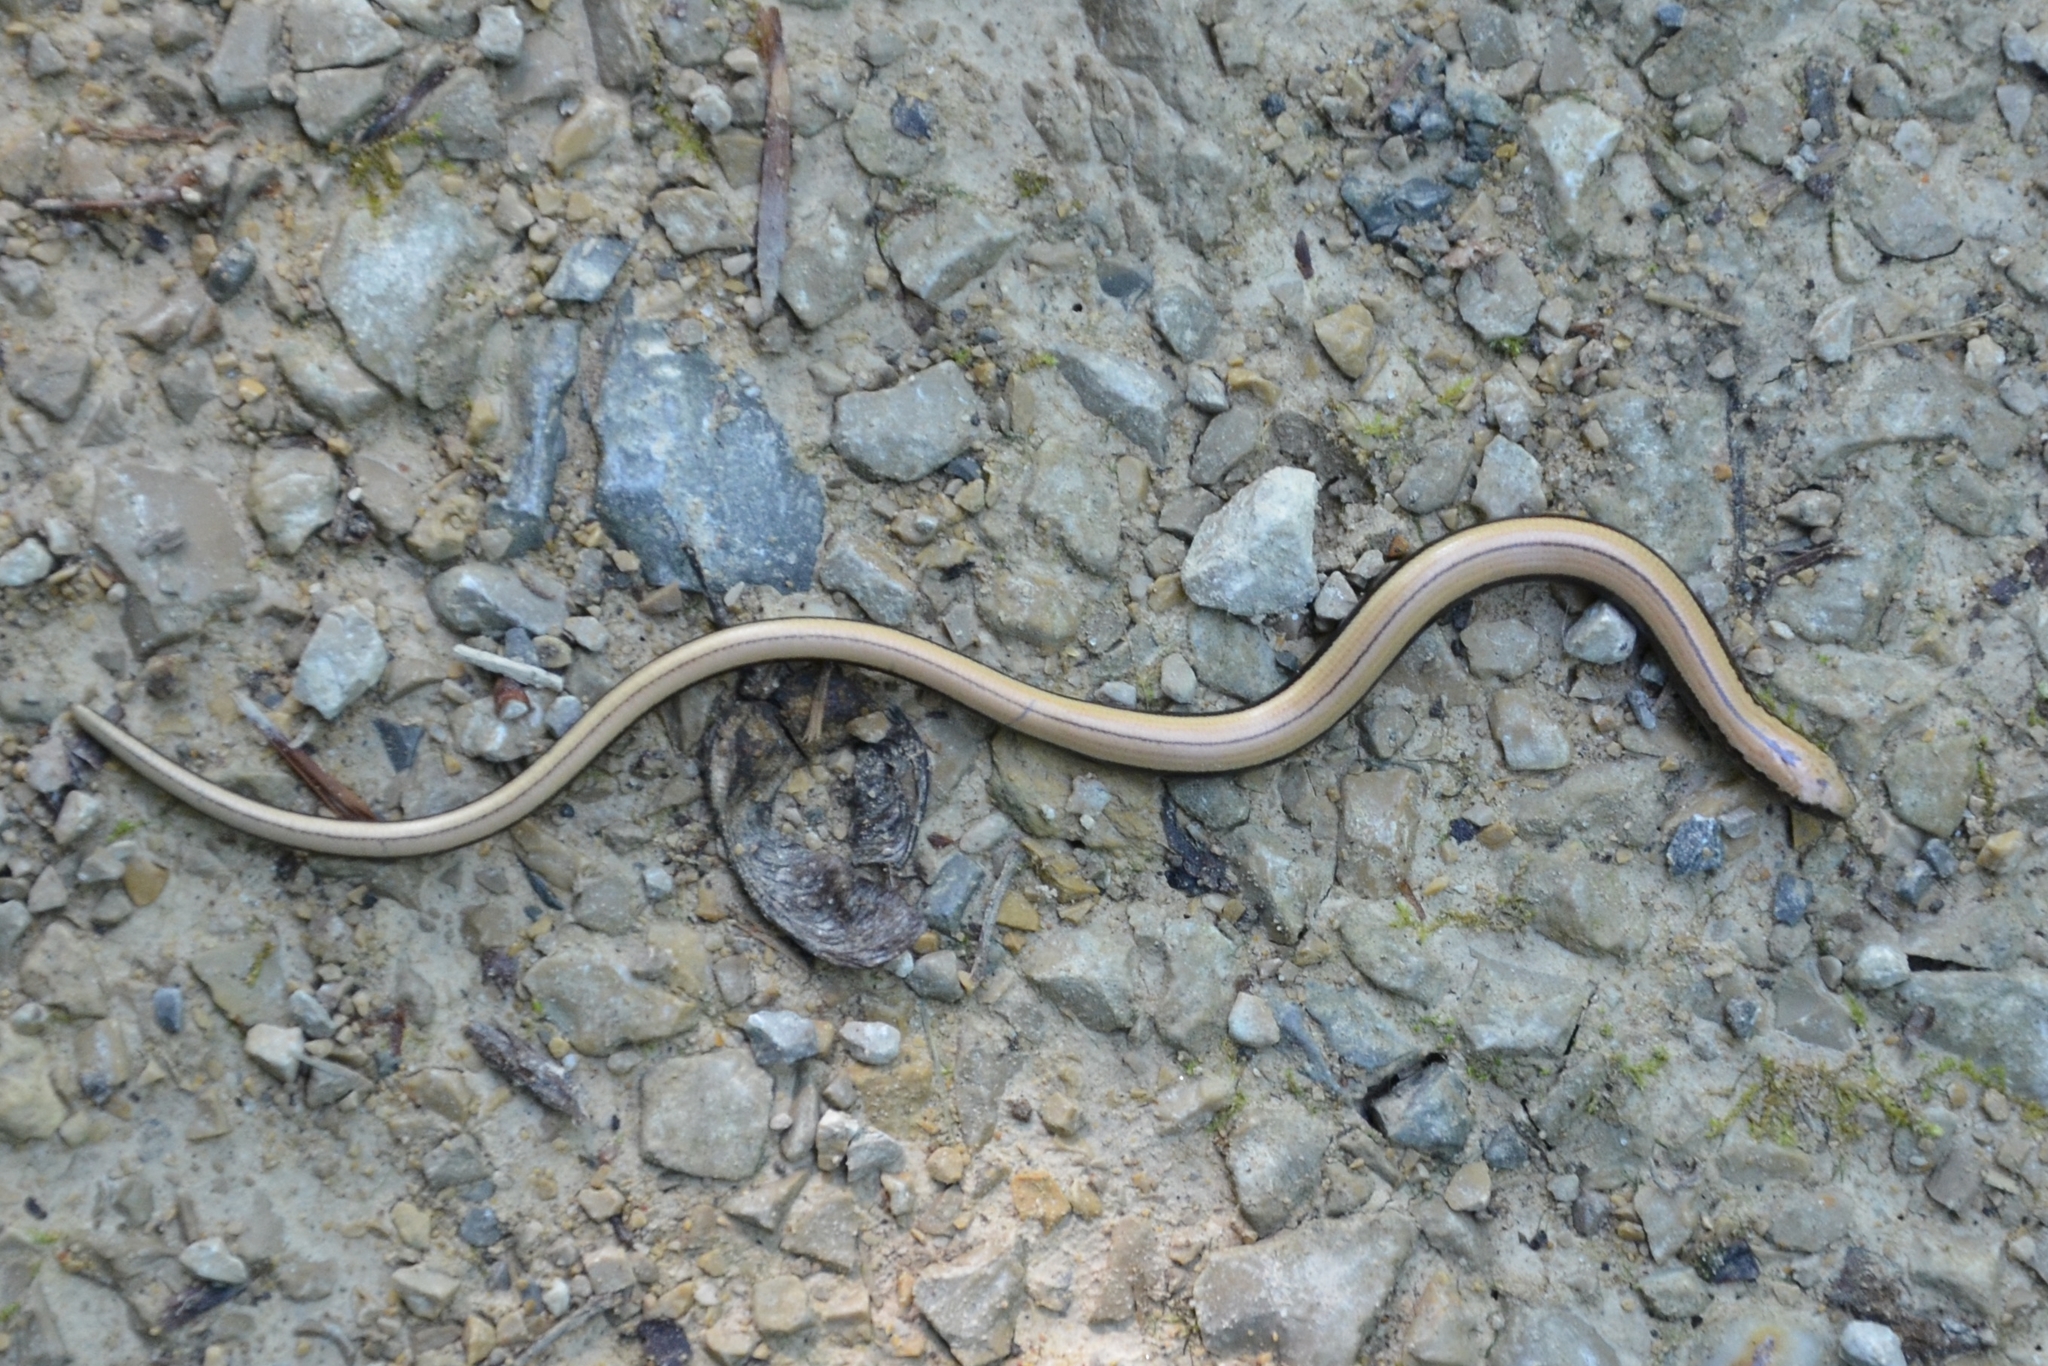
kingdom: Animalia
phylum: Chordata
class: Squamata
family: Anguidae
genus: Anguis
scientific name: Anguis fragilis
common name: Slow worm
